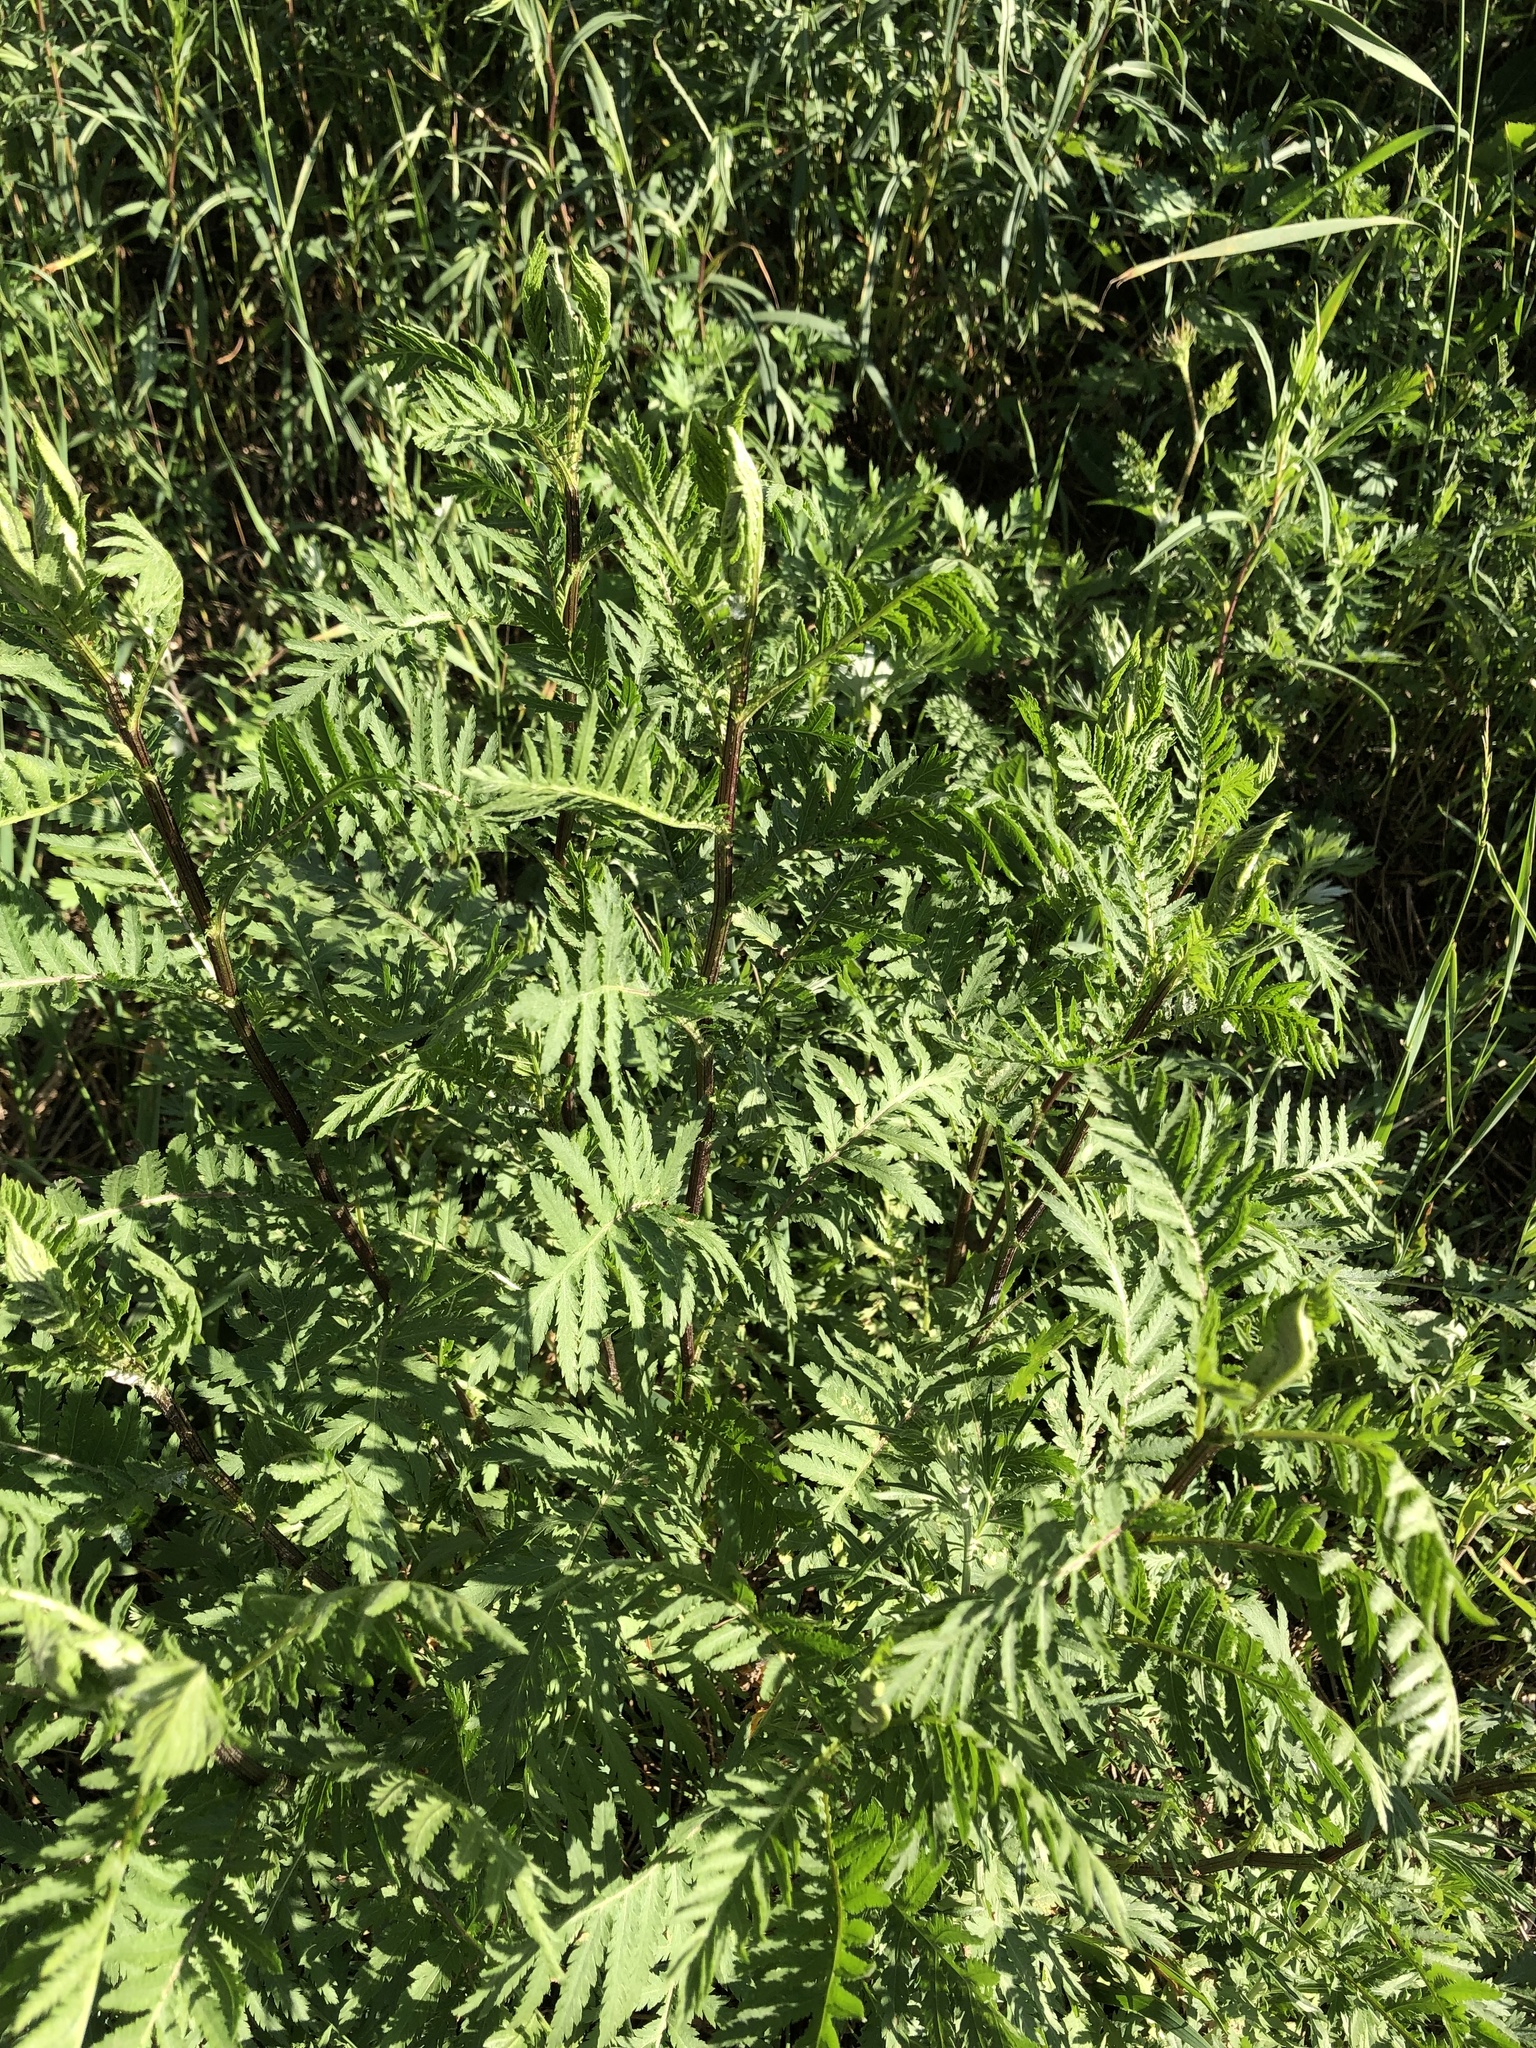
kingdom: Plantae
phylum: Tracheophyta
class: Magnoliopsida
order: Asterales
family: Asteraceae
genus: Tanacetum
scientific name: Tanacetum vulgare
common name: Common tansy
